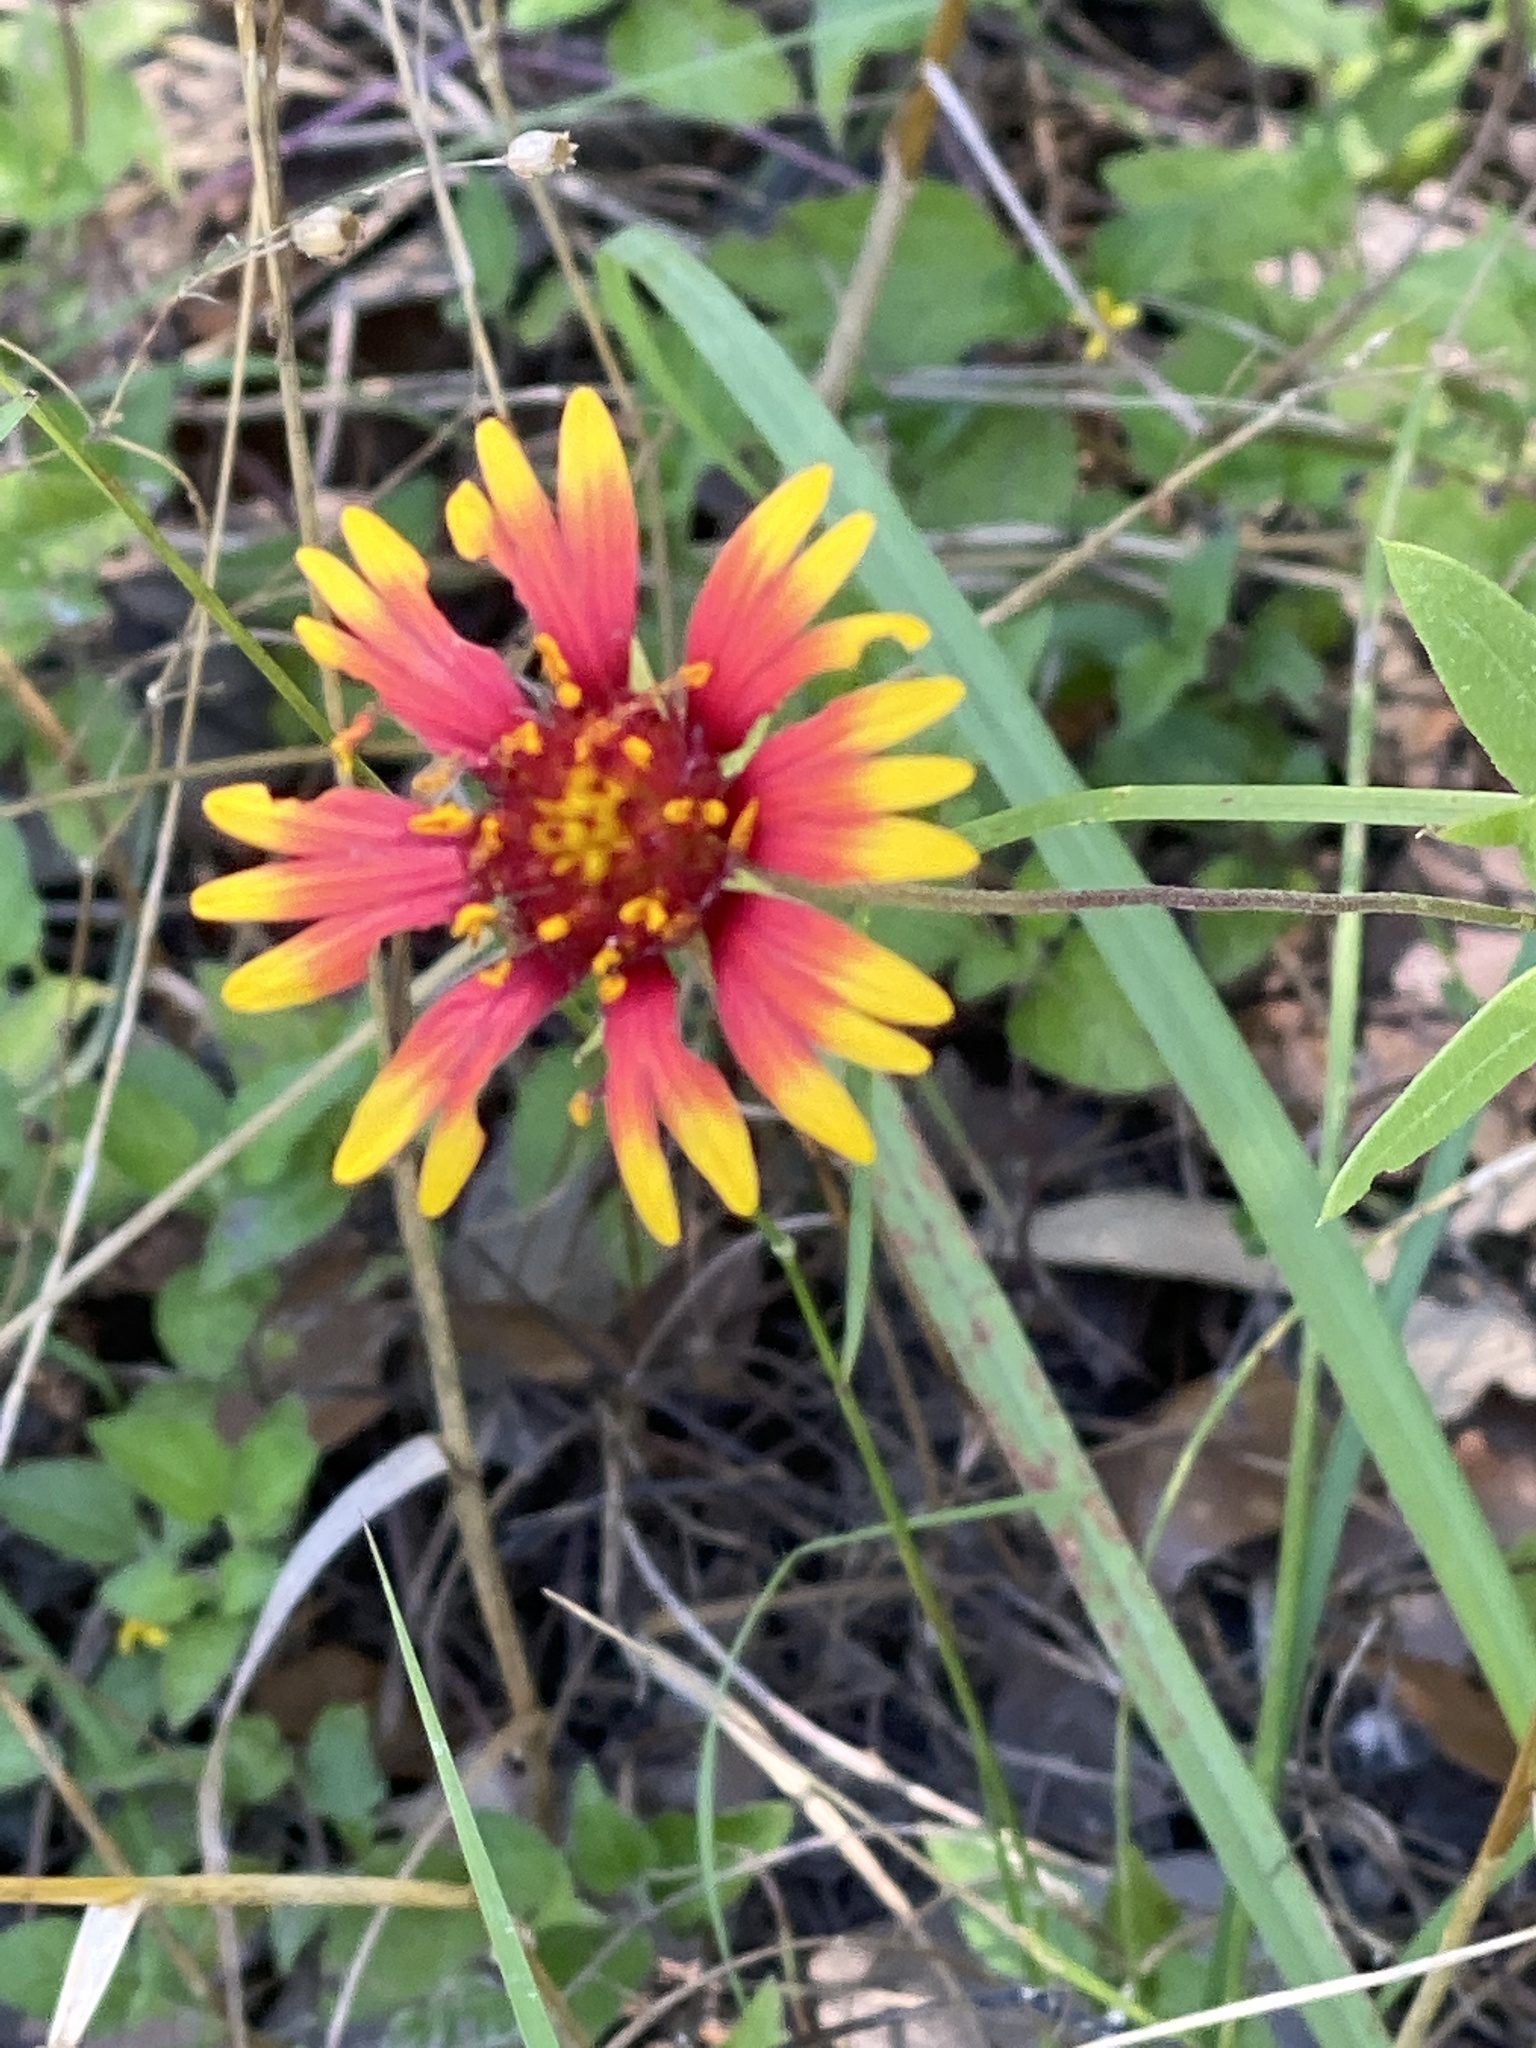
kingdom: Plantae
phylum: Tracheophyta
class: Magnoliopsida
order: Asterales
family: Asteraceae
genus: Gaillardia
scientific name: Gaillardia pulchella
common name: Firewheel
